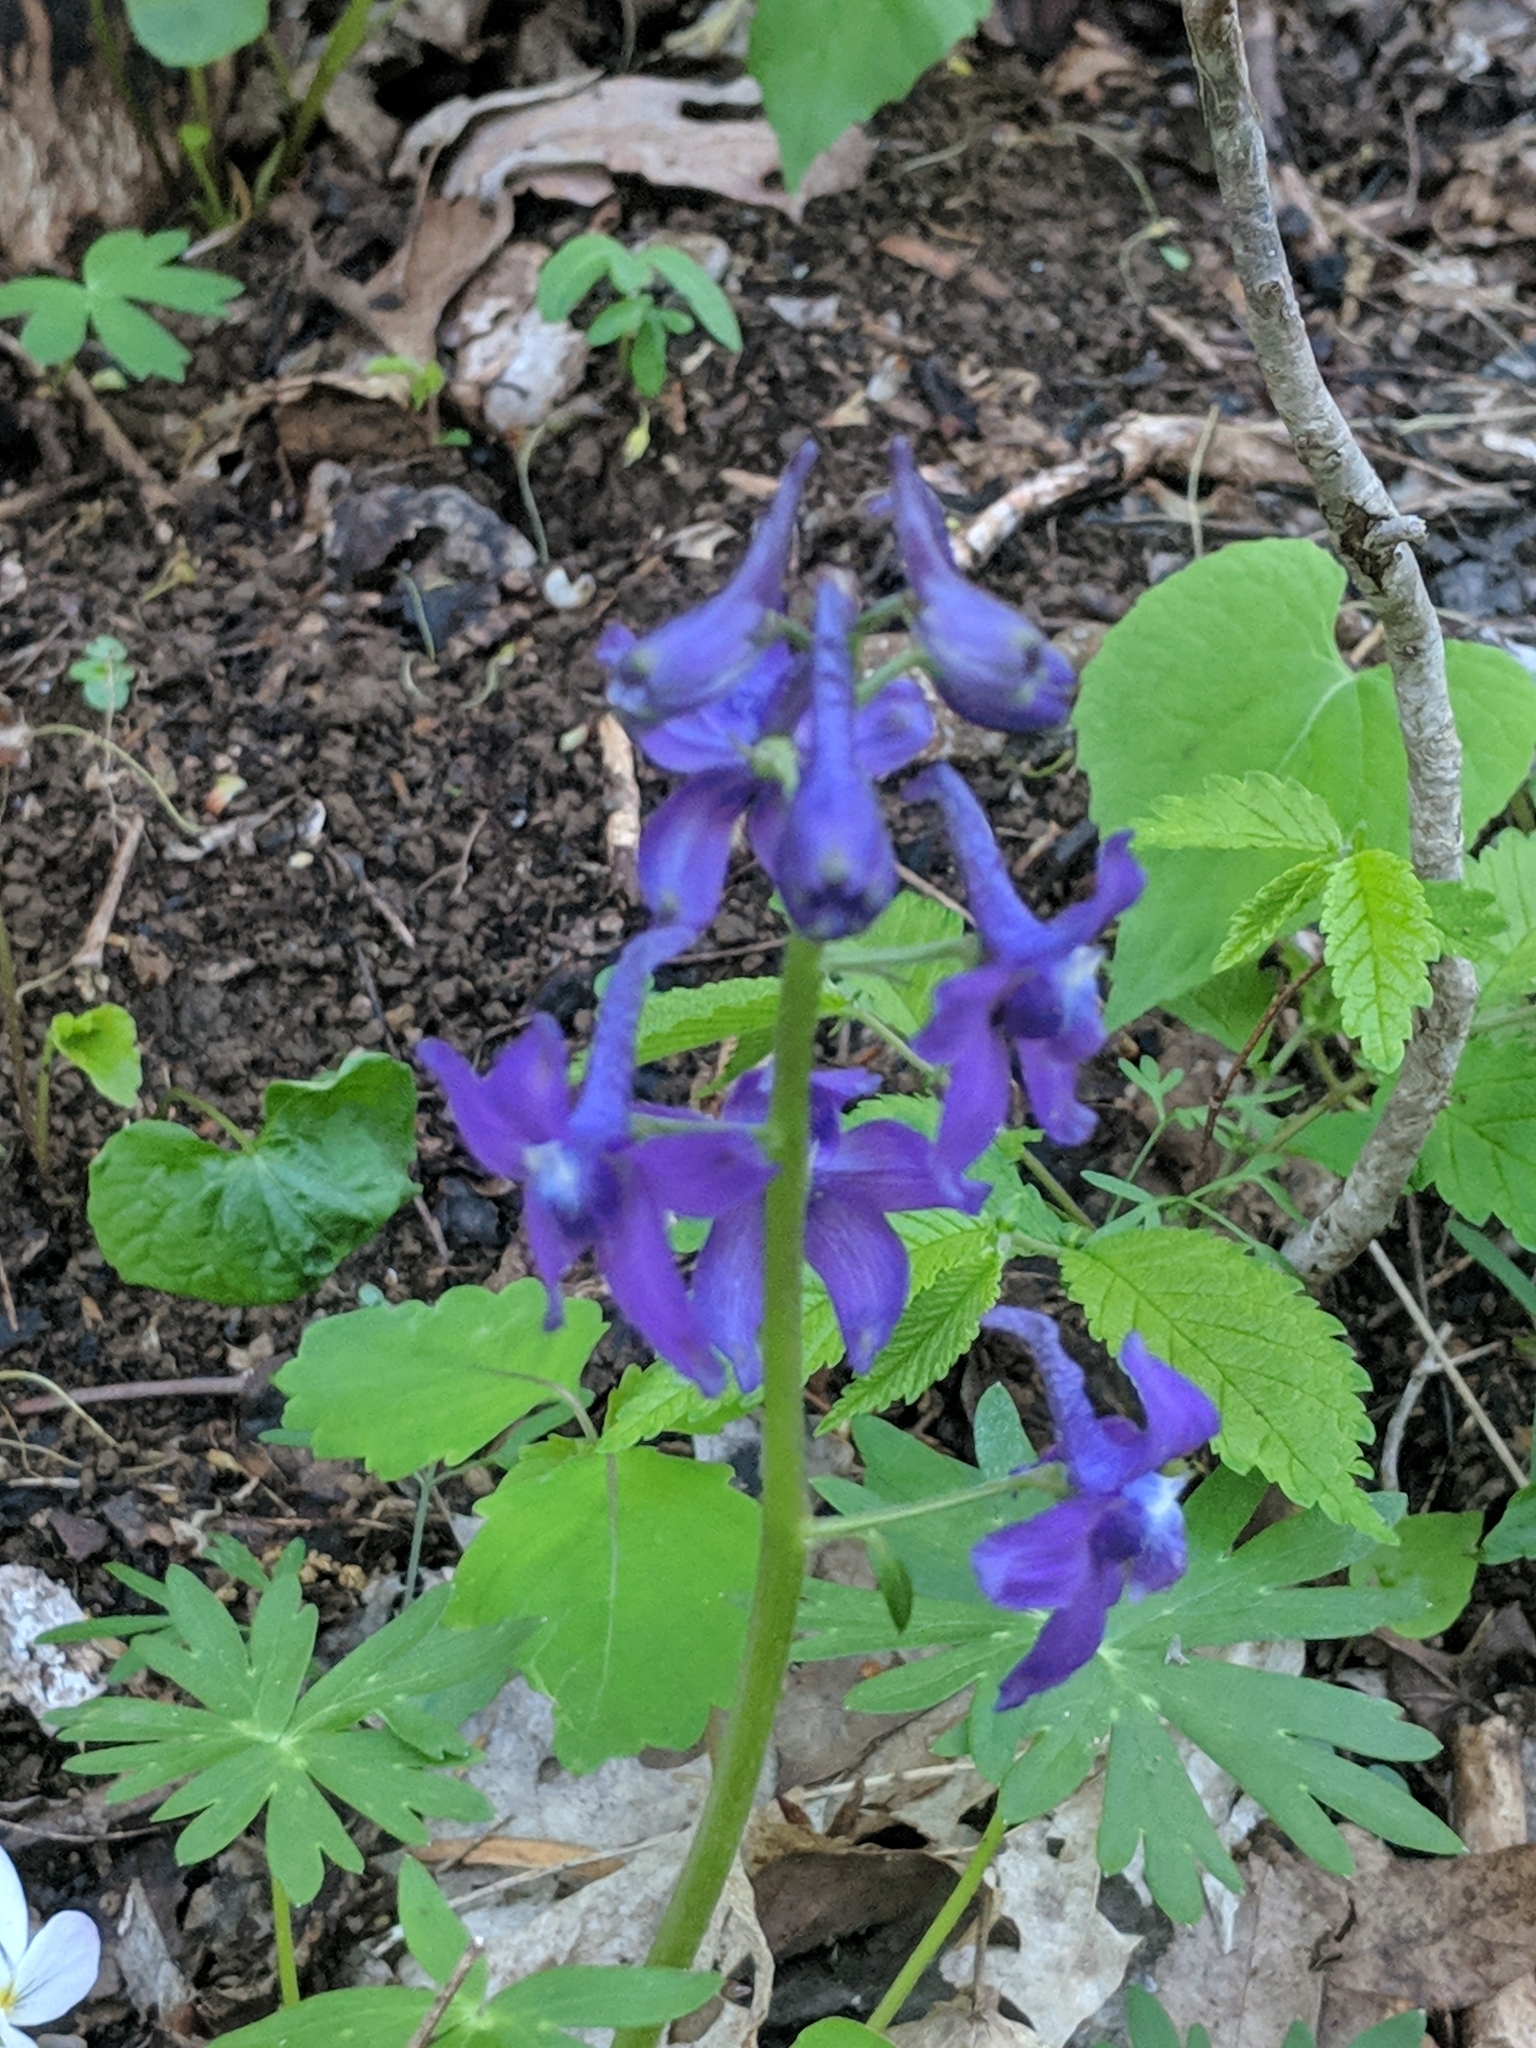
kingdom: Plantae
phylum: Tracheophyta
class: Magnoliopsida
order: Ranunculales
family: Ranunculaceae
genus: Delphinium
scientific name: Delphinium tricorne
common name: Dwarf larkspur
